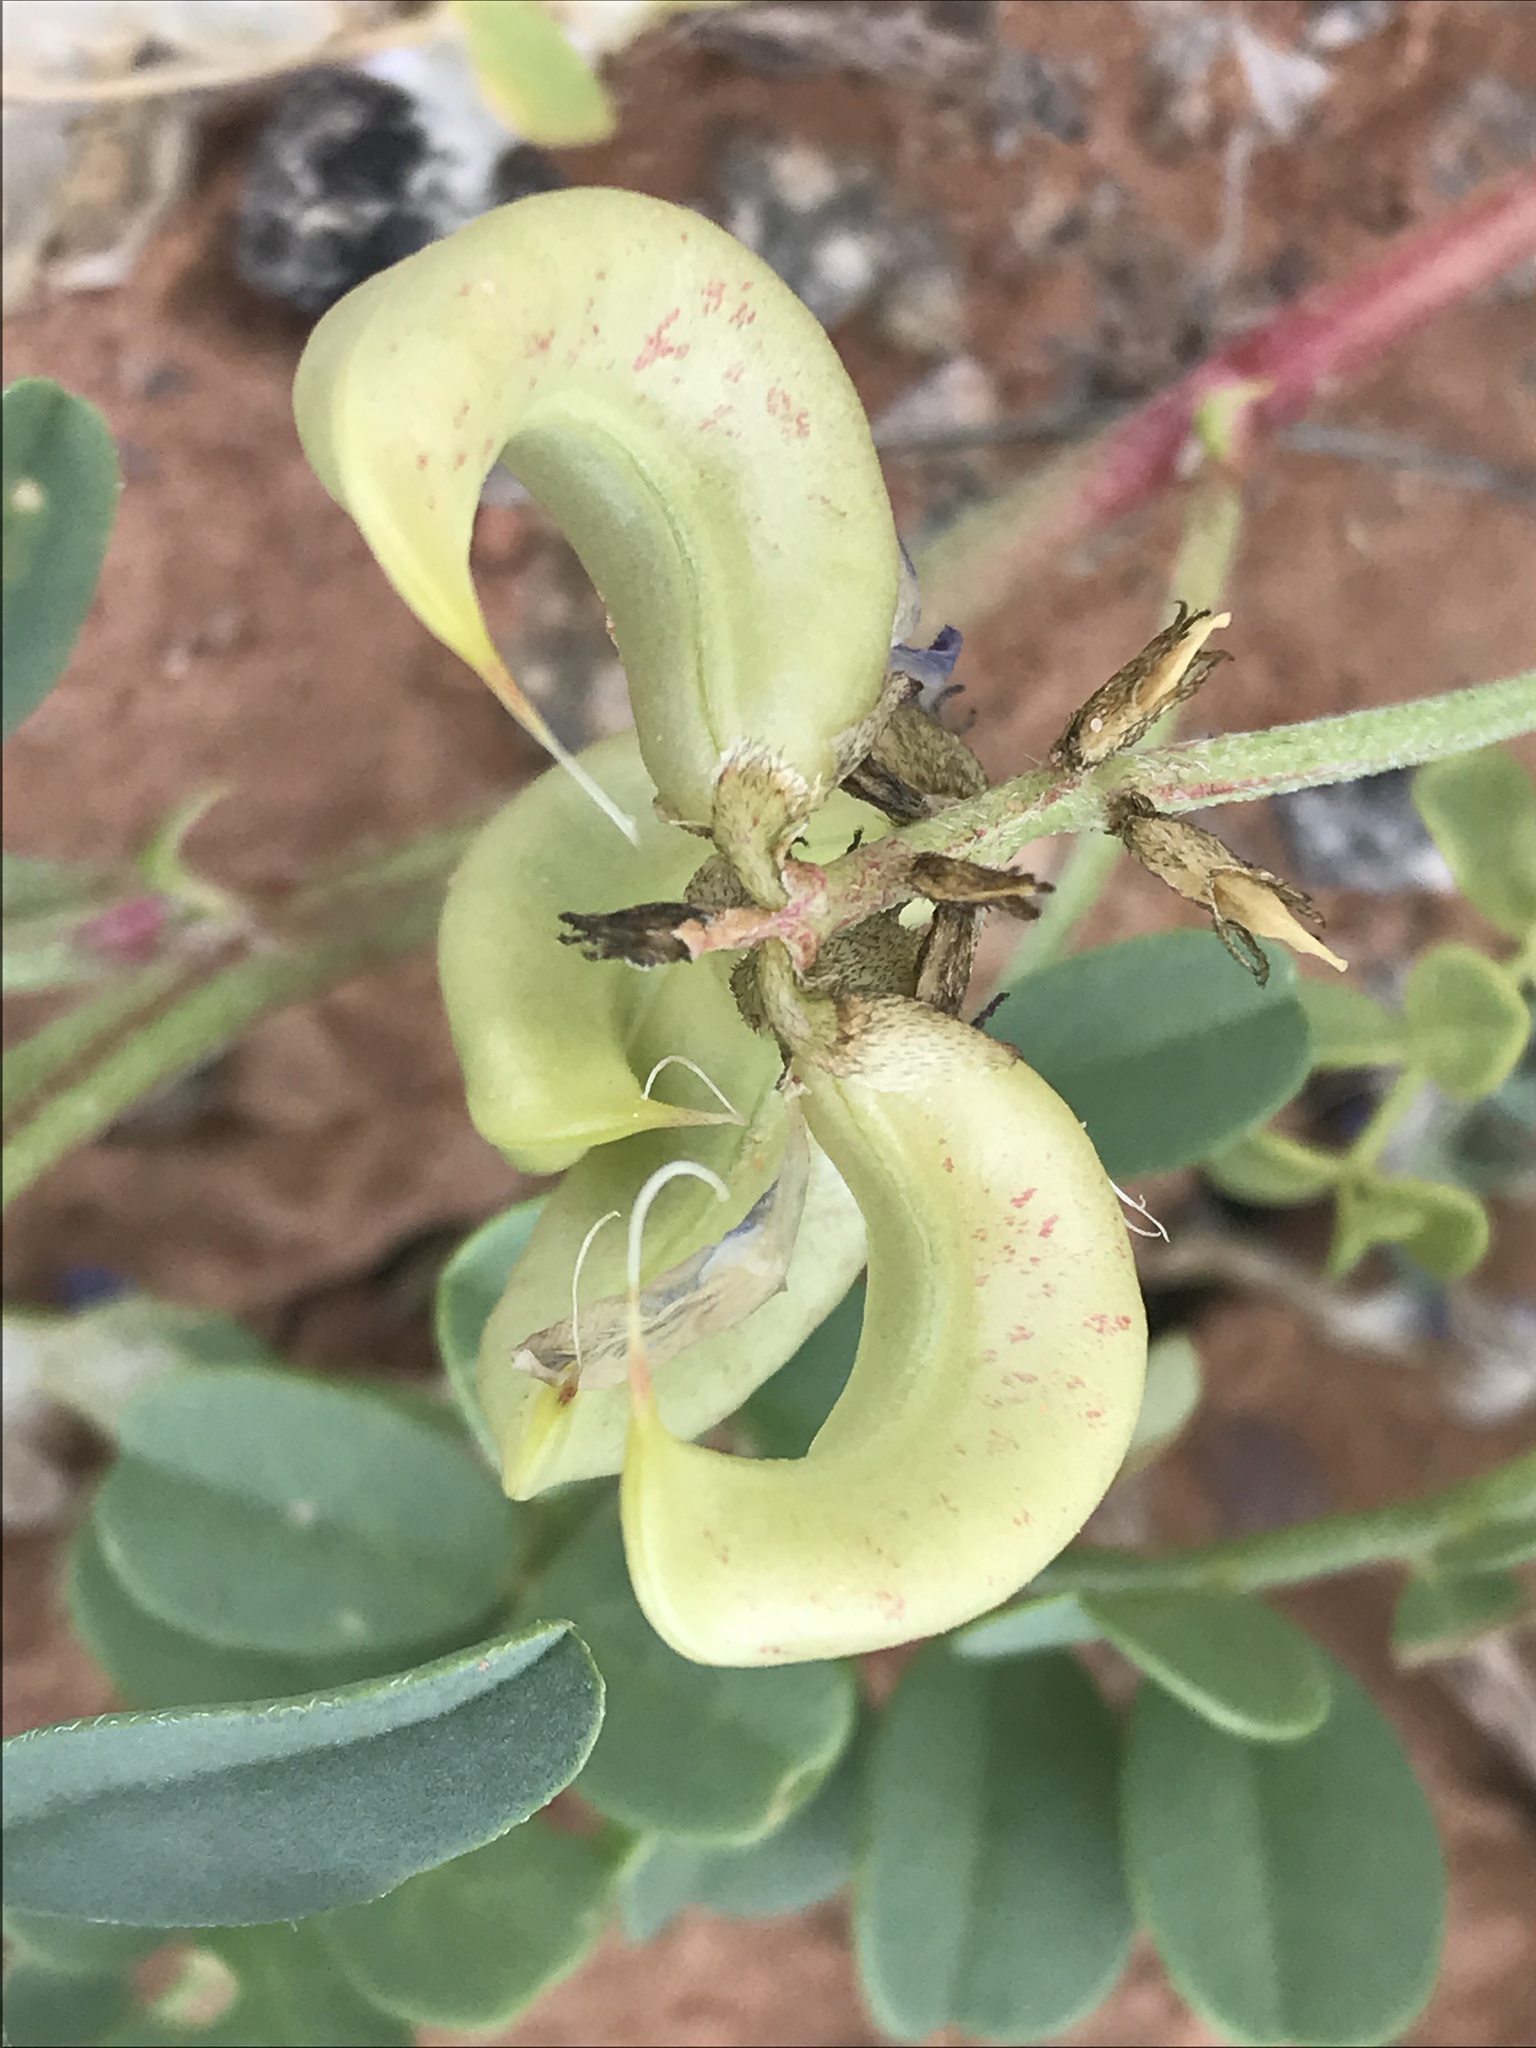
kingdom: Plantae
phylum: Tracheophyta
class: Magnoliopsida
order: Fabales
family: Fabaceae
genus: Astragalus
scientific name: Astragalus lentiginosus
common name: Freckled milkvetch
